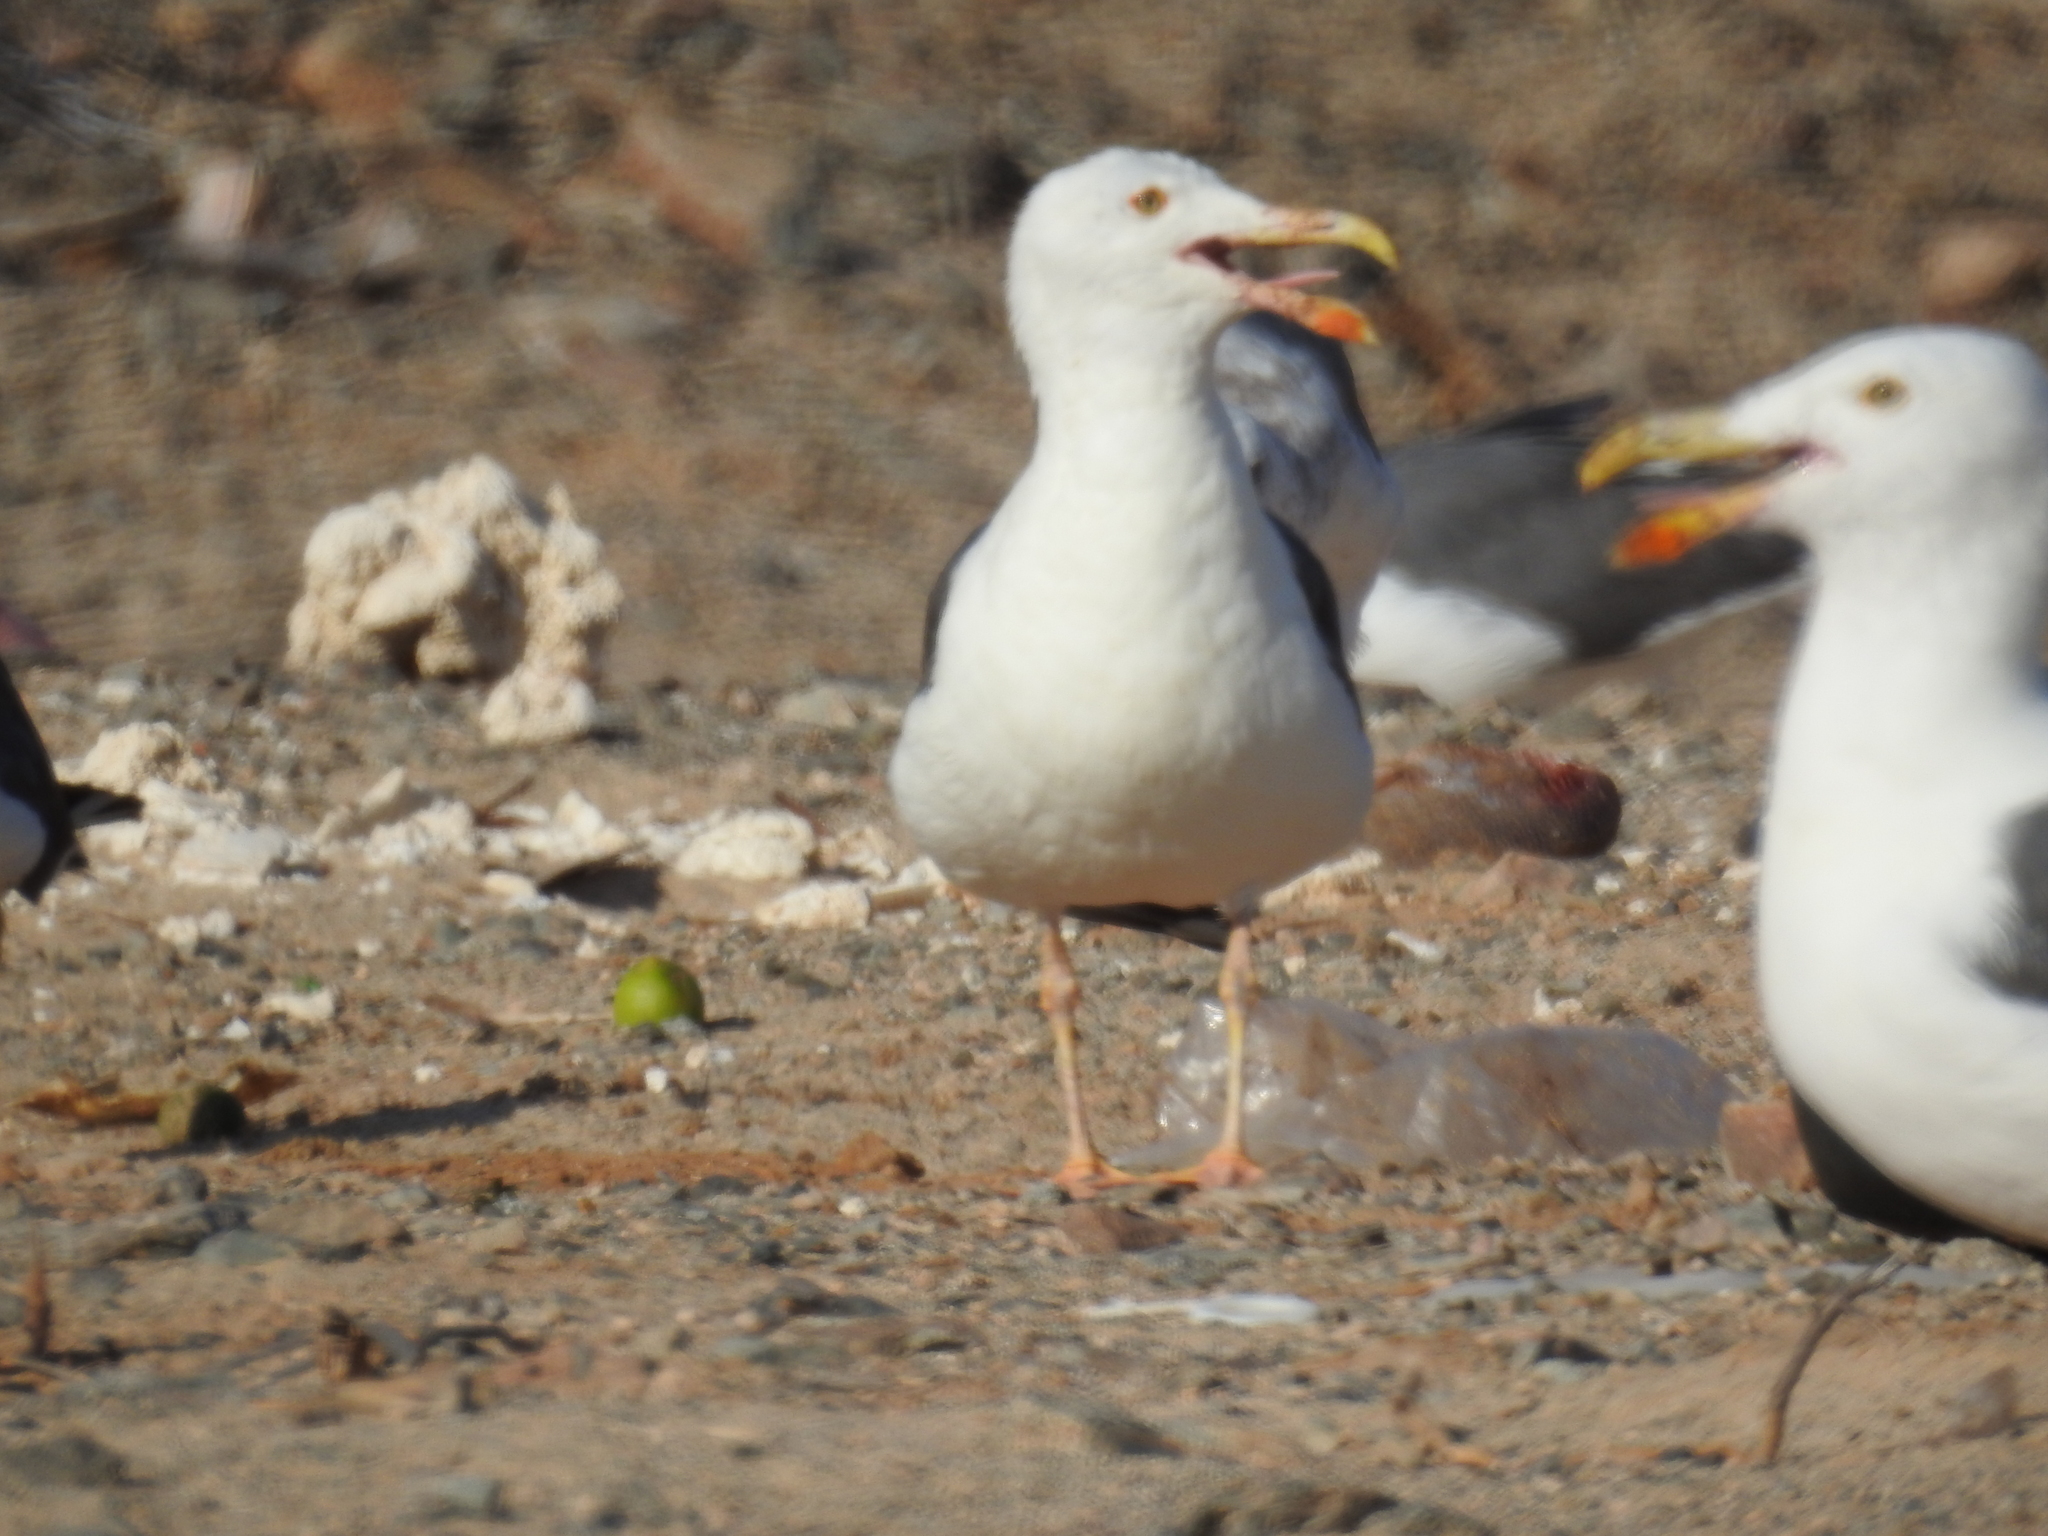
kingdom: Animalia
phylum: Chordata
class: Aves
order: Charadriiformes
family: Laridae
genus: Larus
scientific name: Larus livens
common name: Yellow-footed gull
